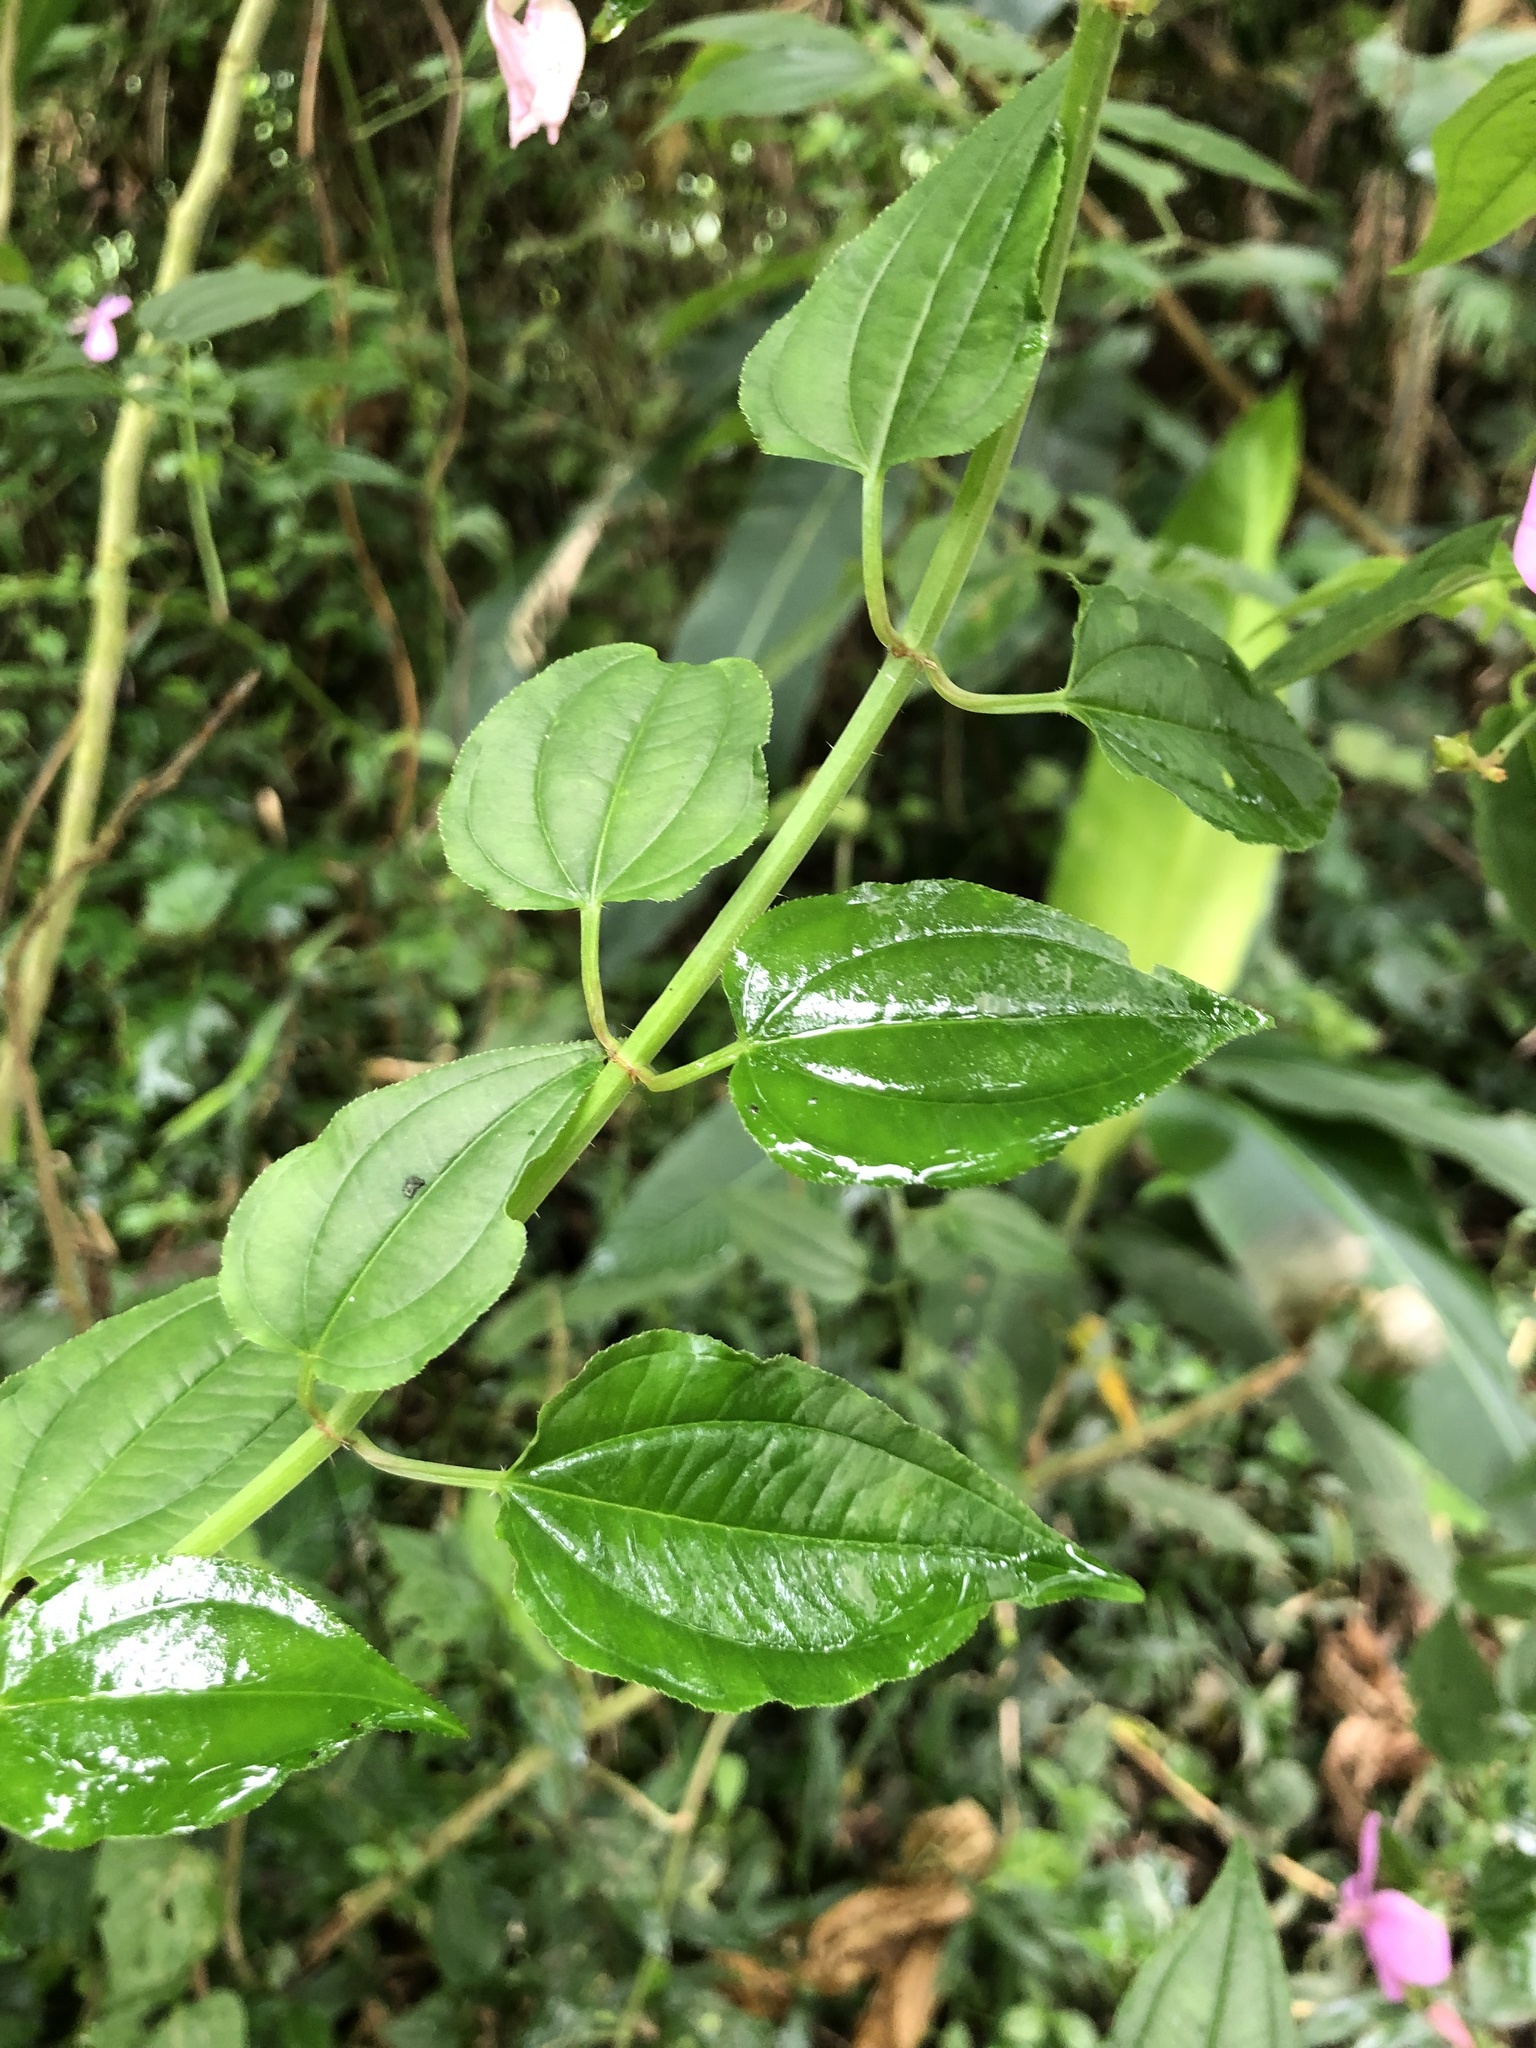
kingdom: Plantae
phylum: Tracheophyta
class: Magnoliopsida
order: Myrtales
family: Melastomataceae
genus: Arthrostemma
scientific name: Arthrostemma ciliatum
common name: Everblooming eavender
